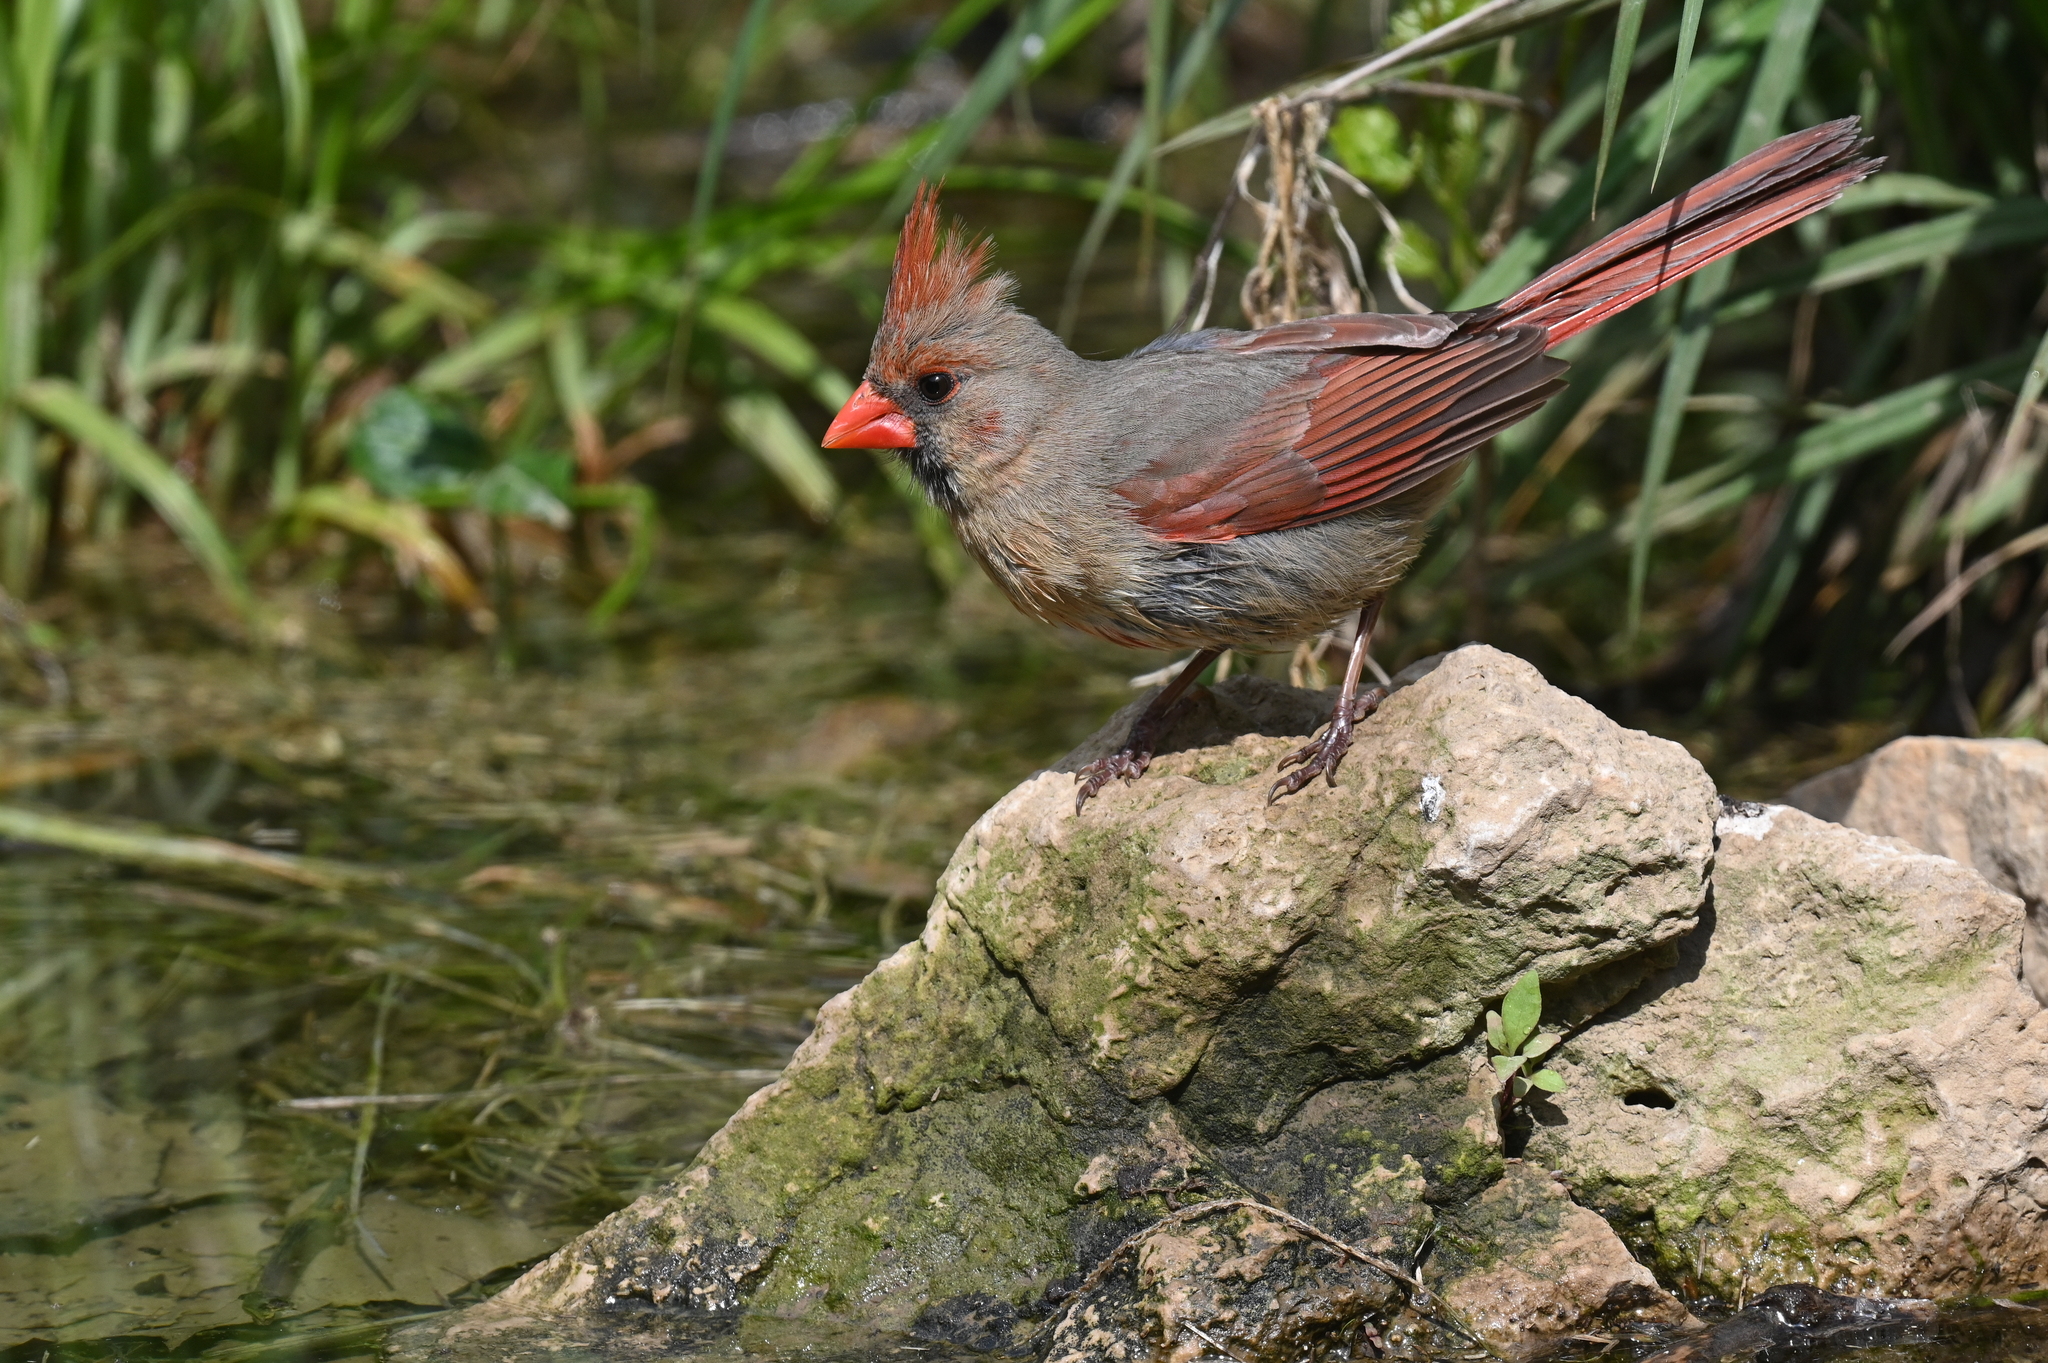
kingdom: Animalia
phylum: Chordata
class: Aves
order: Passeriformes
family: Cardinalidae
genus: Cardinalis
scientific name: Cardinalis cardinalis
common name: Northern cardinal
